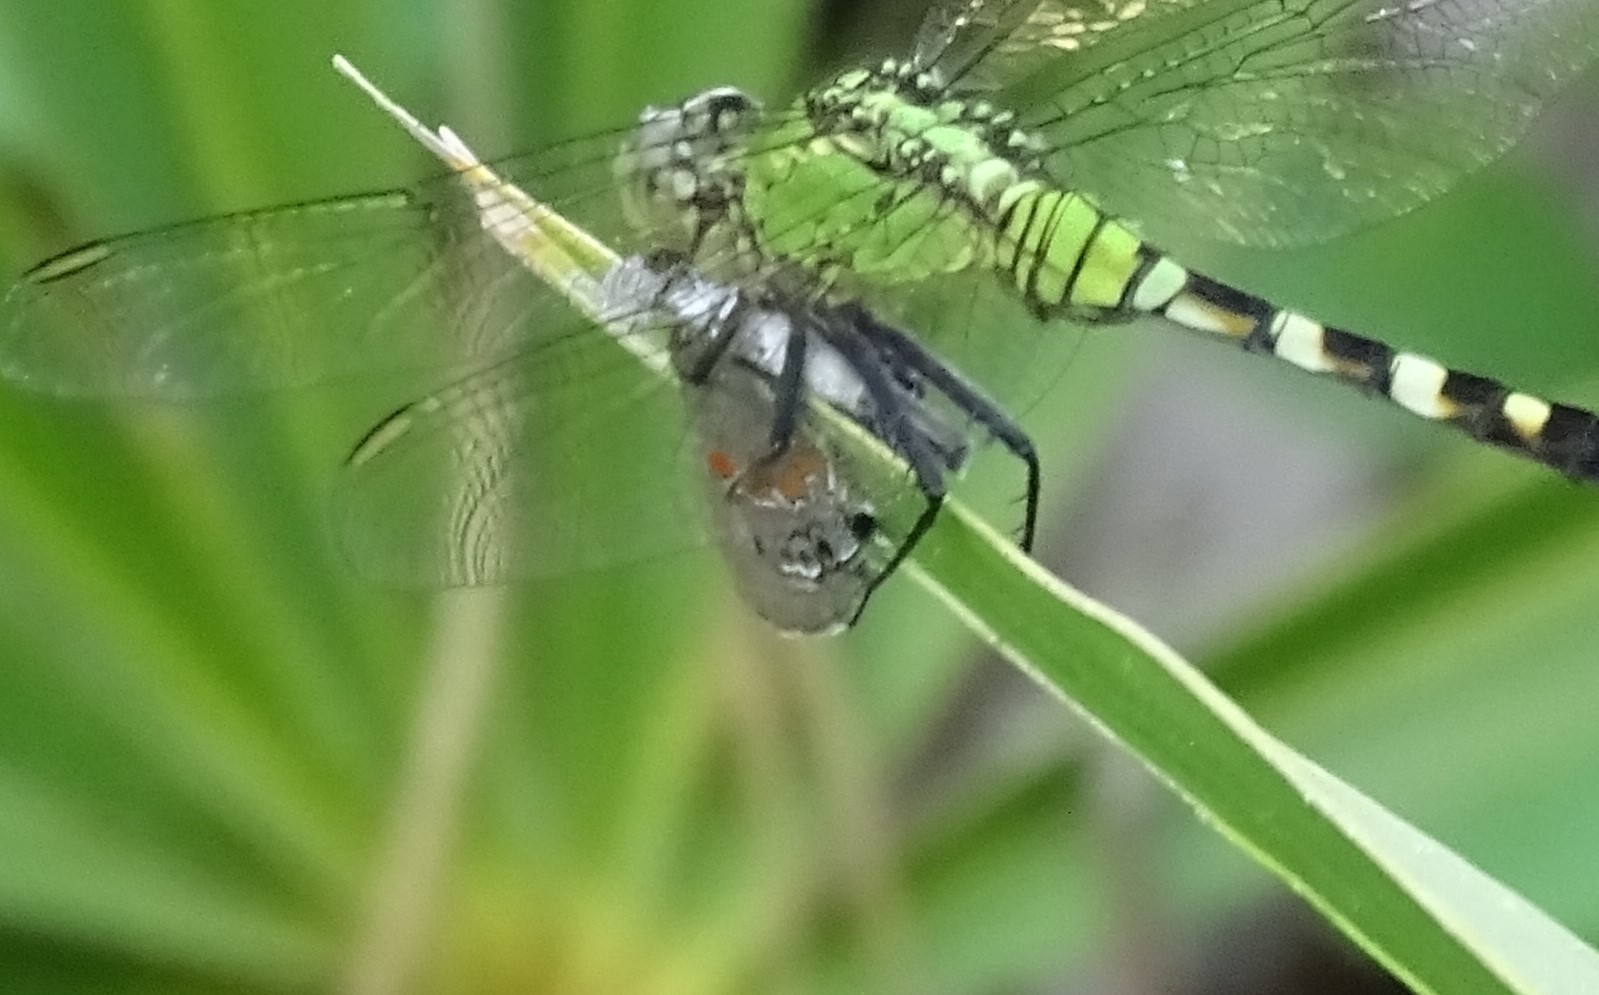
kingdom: Animalia
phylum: Arthropoda
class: Insecta
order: Lepidoptera
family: Lycaenidae
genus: Calycopis
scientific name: Calycopis cecrops
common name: Red-banded hairstreak
